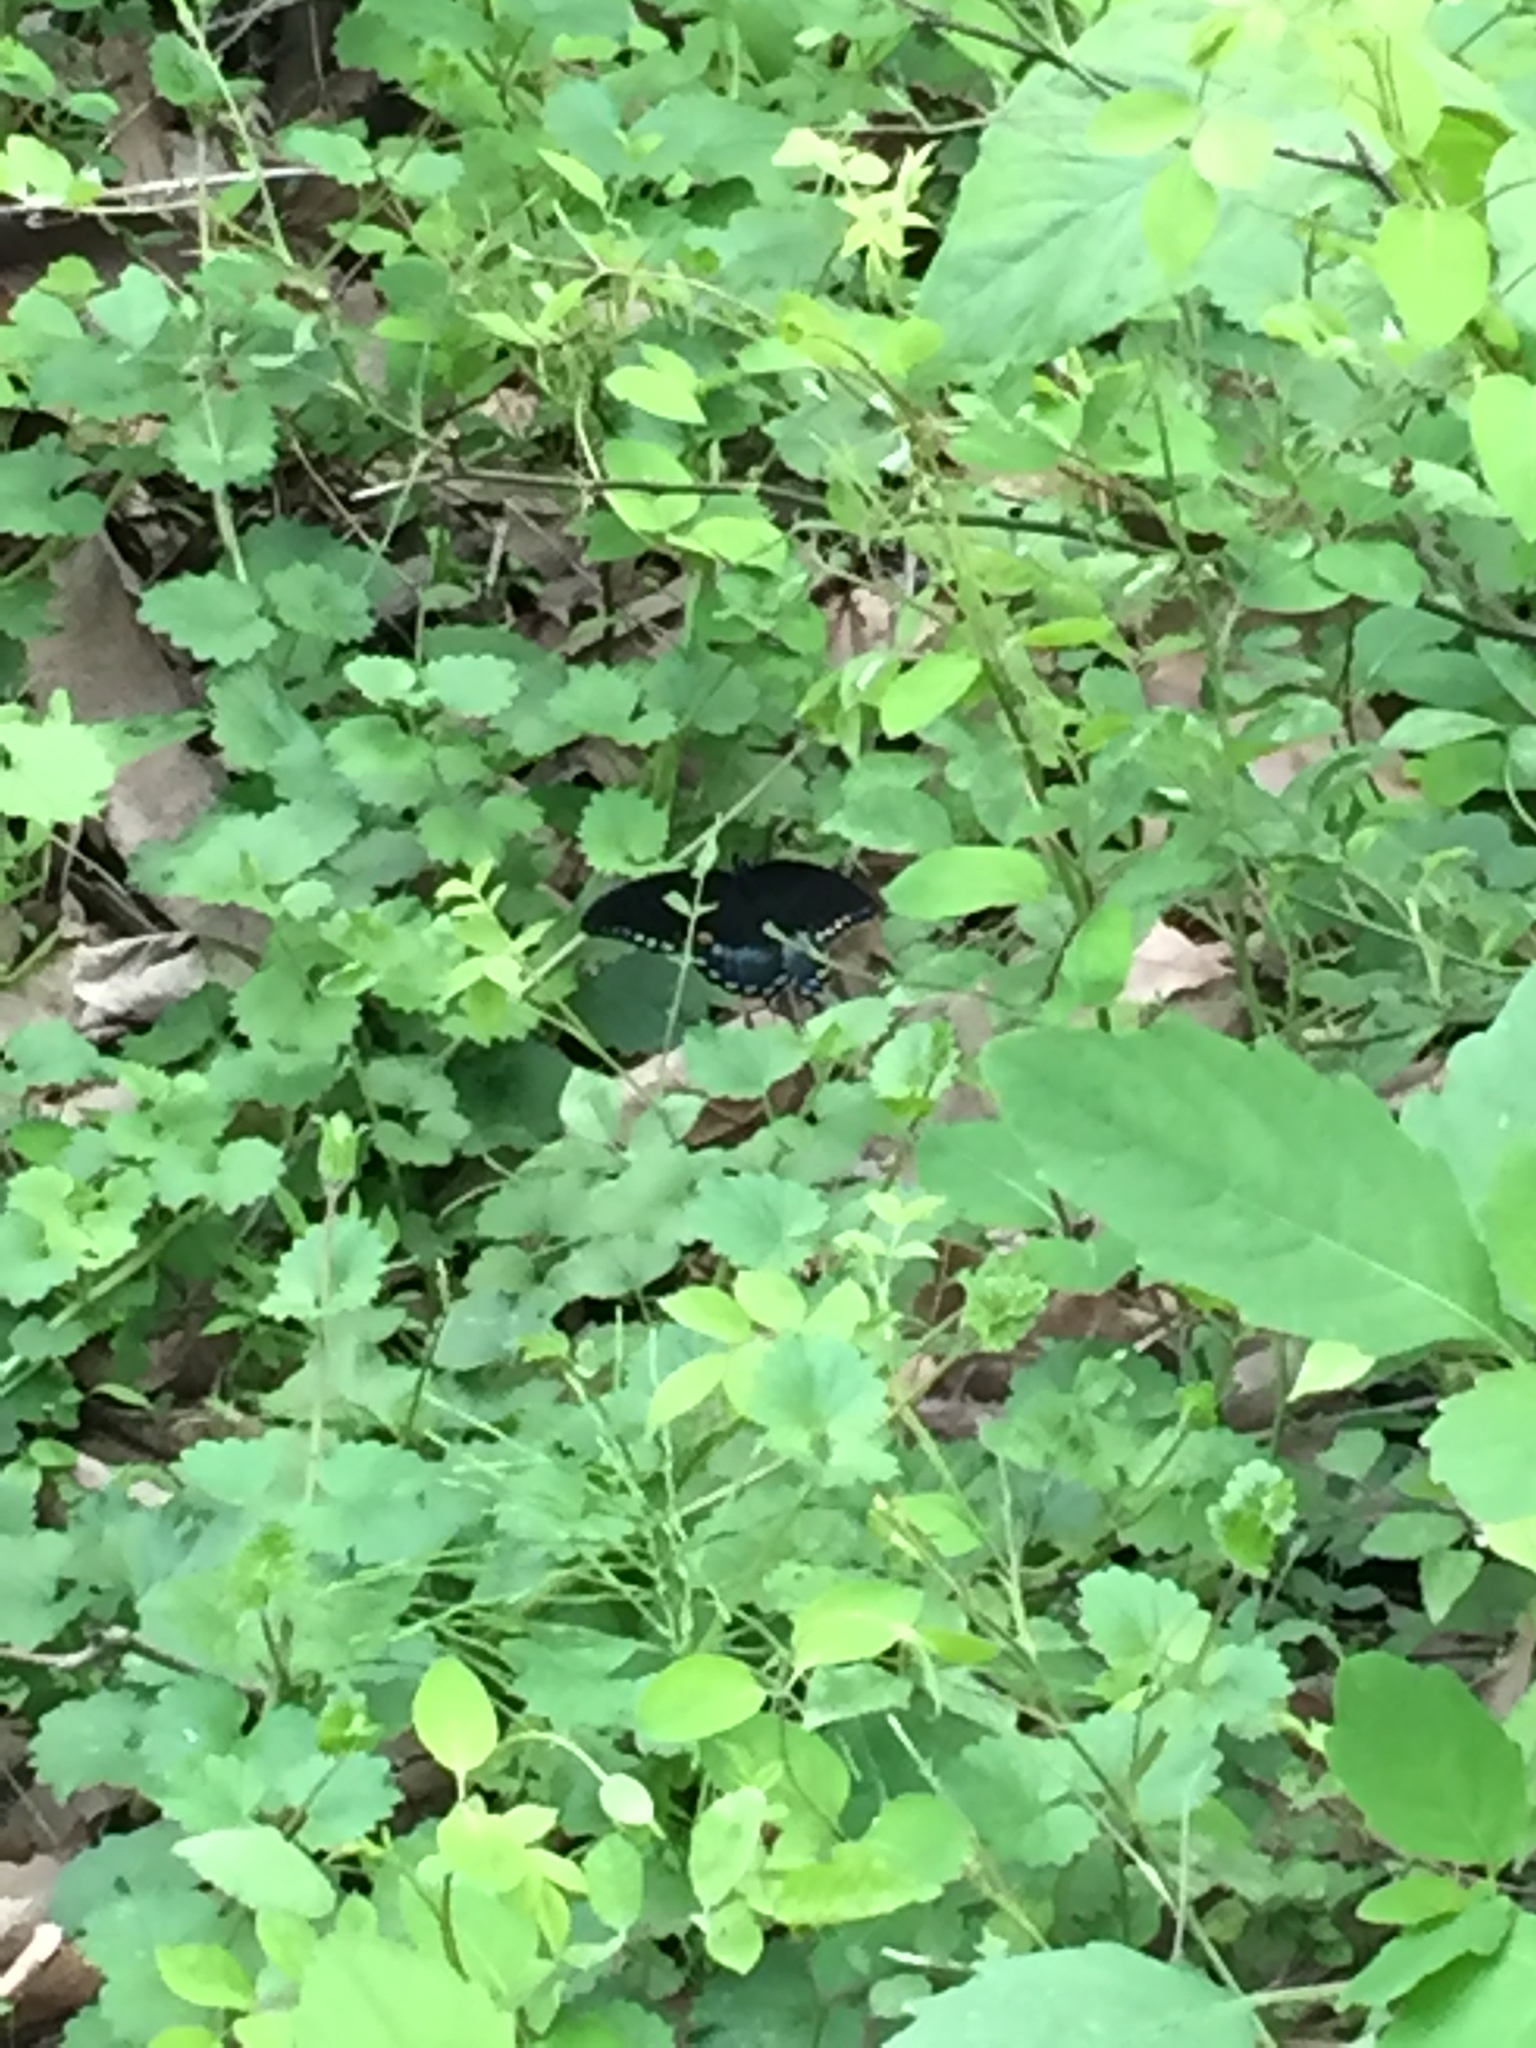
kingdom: Animalia
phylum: Arthropoda
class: Insecta
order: Lepidoptera
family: Papilionidae
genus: Papilio
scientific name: Papilio glaucus
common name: Tiger swallowtail
